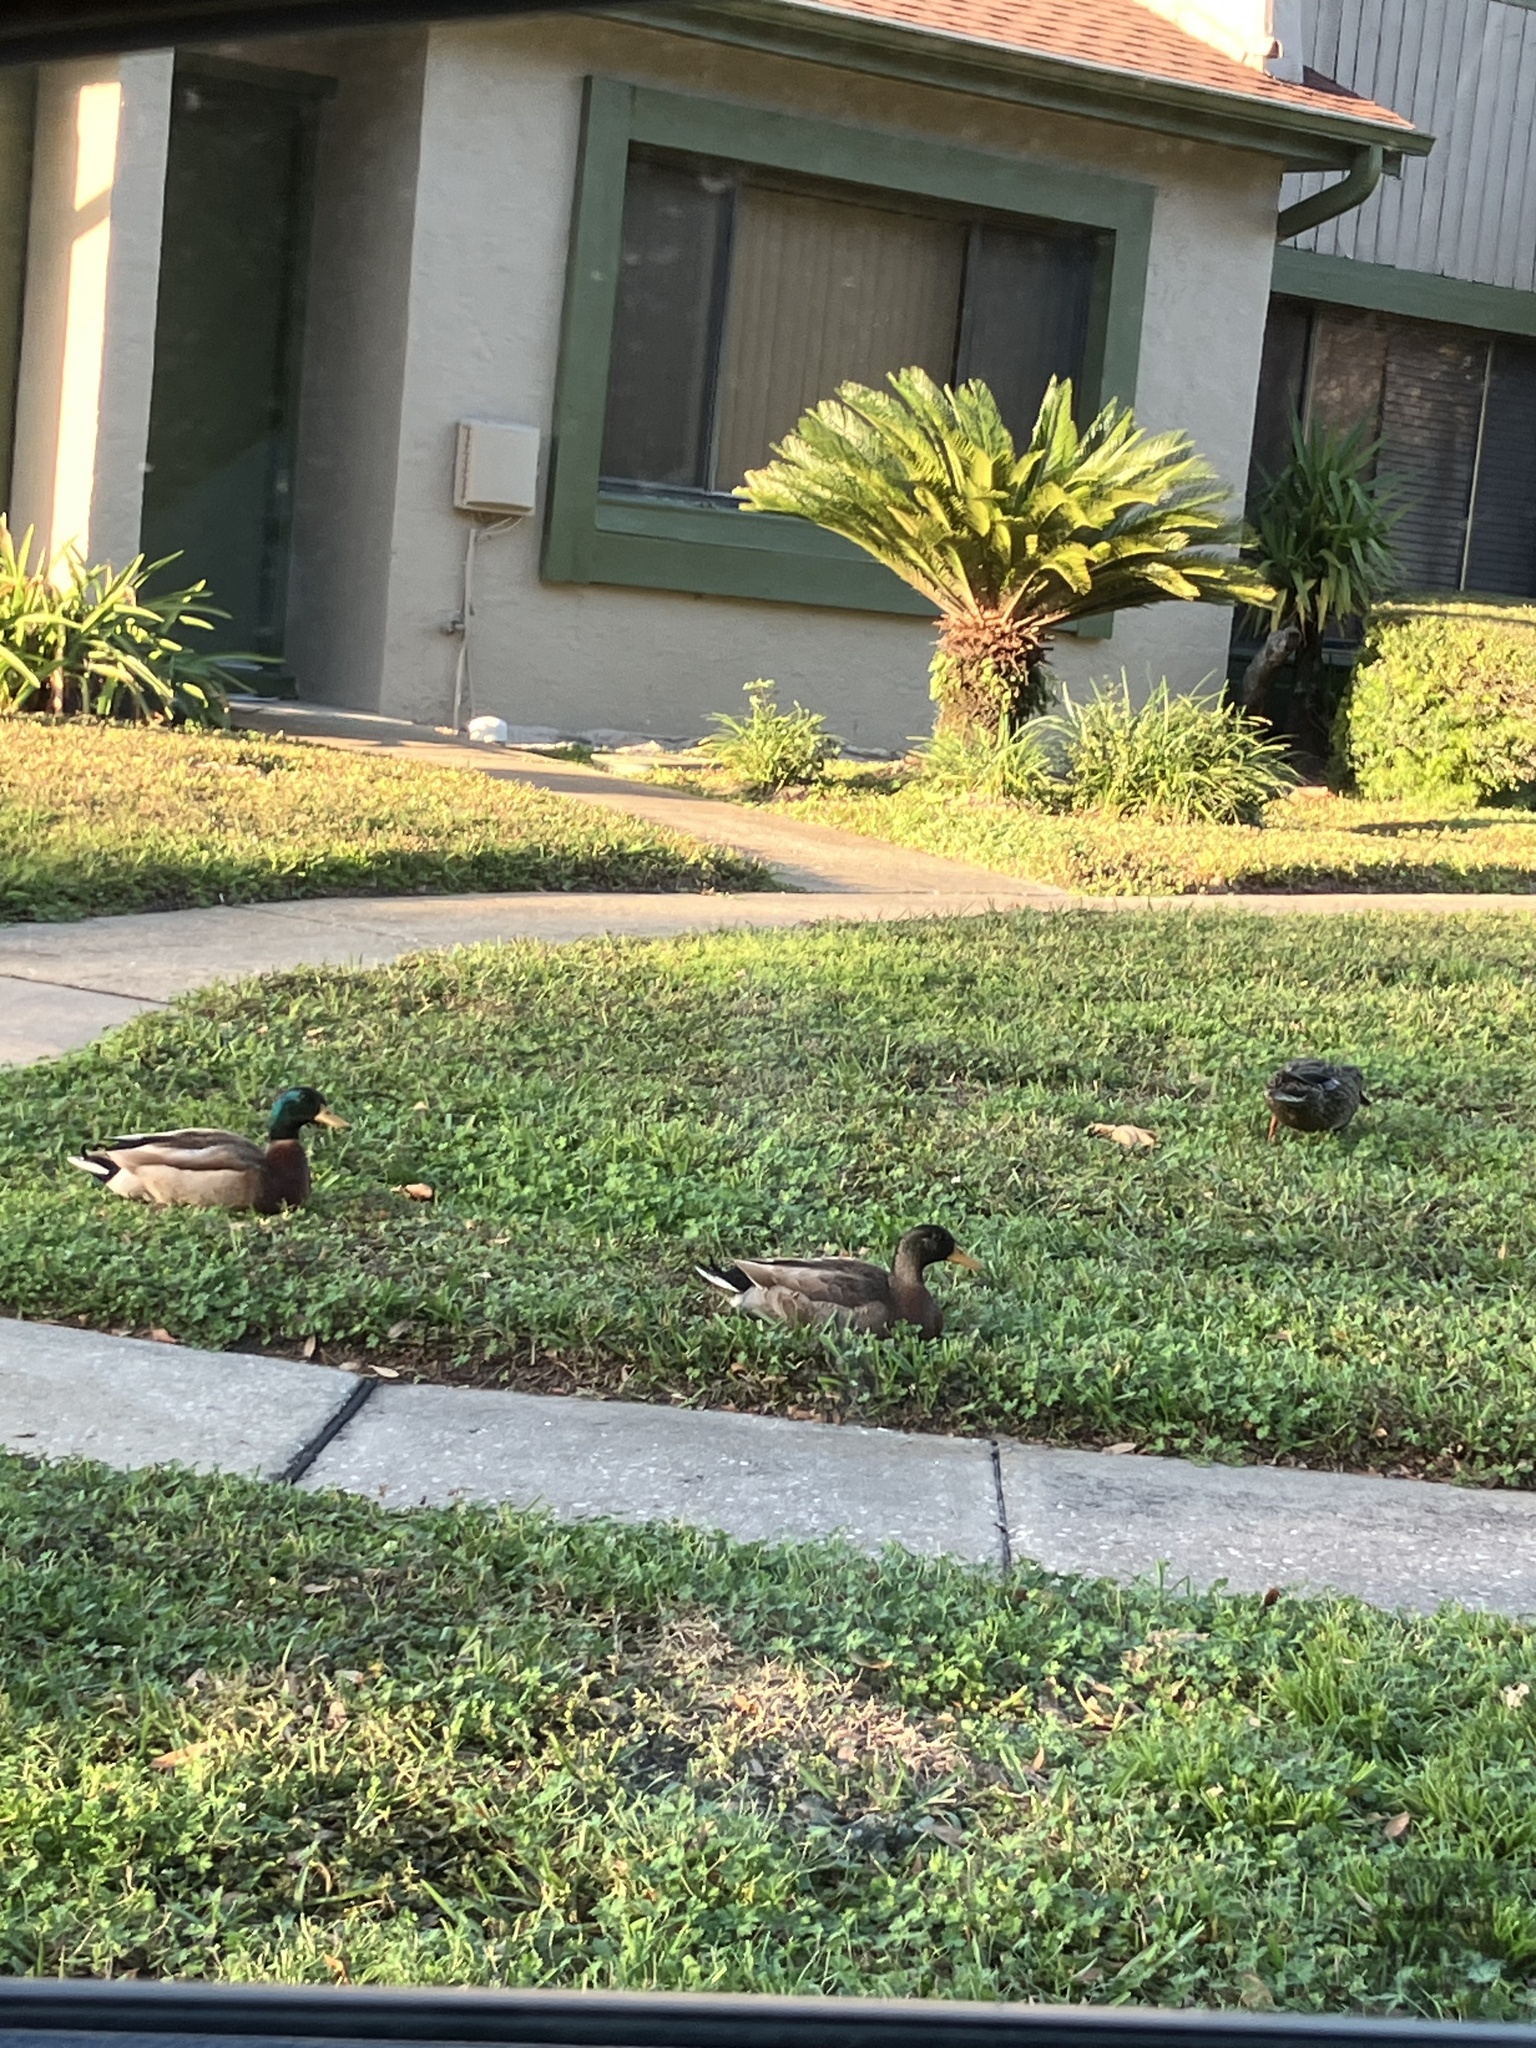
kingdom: Animalia
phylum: Chordata
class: Aves
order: Anseriformes
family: Anatidae
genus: Anas
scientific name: Anas platyrhynchos
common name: Mallard
